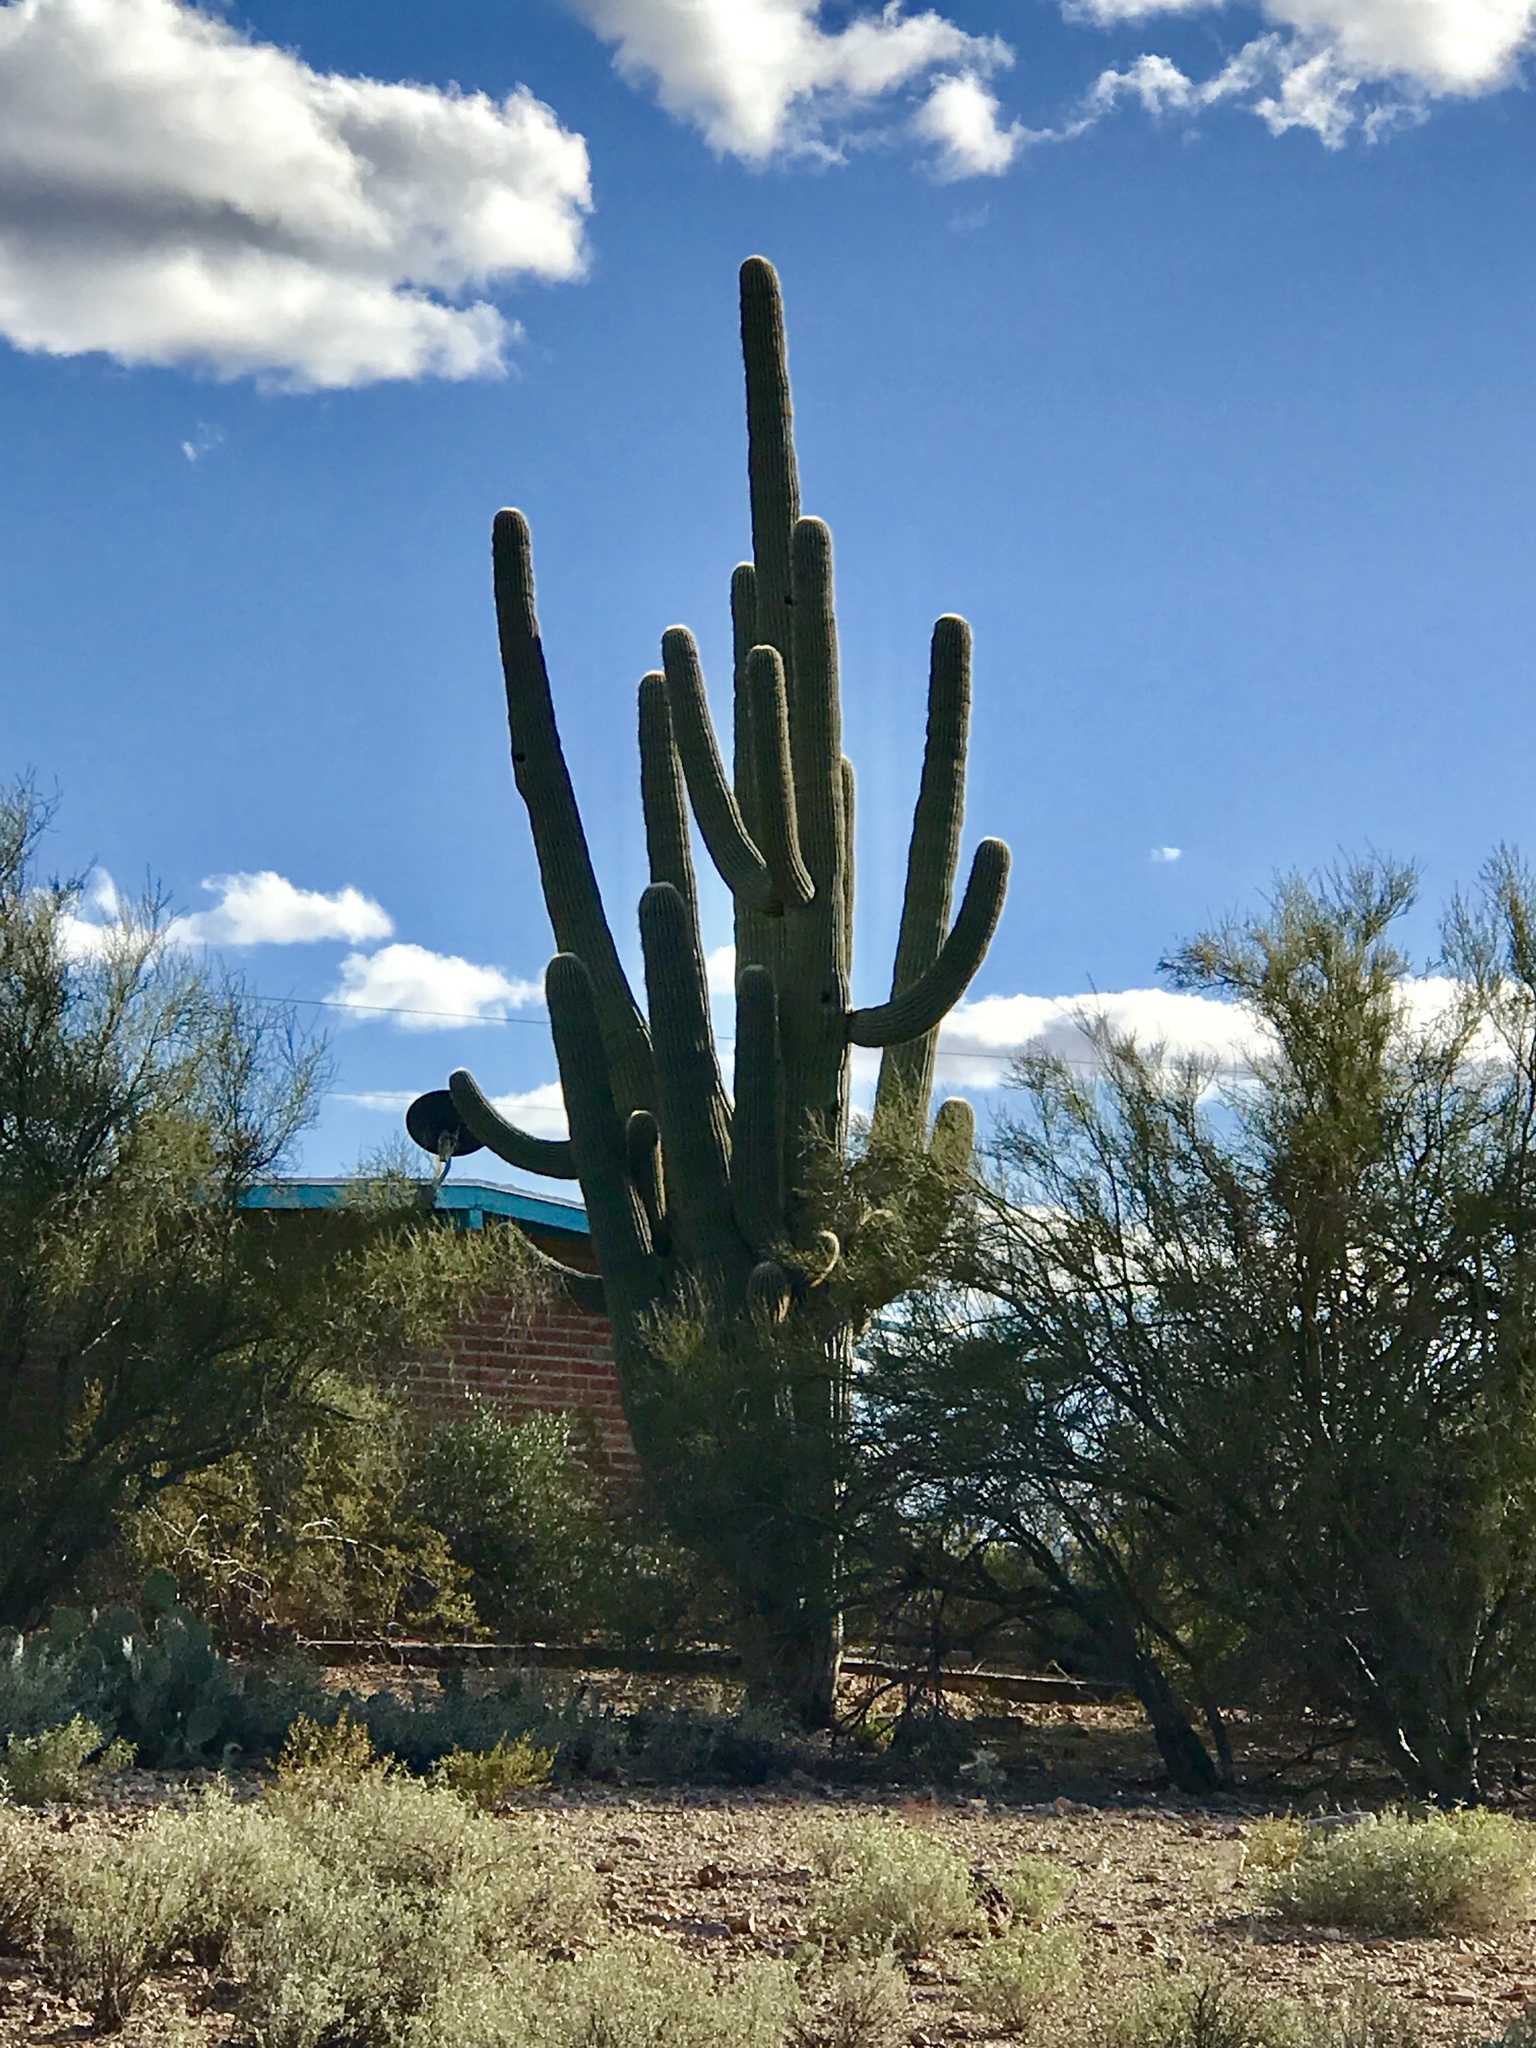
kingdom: Plantae
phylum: Tracheophyta
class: Magnoliopsida
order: Caryophyllales
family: Cactaceae
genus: Carnegiea
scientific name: Carnegiea gigantea
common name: Saguaro
